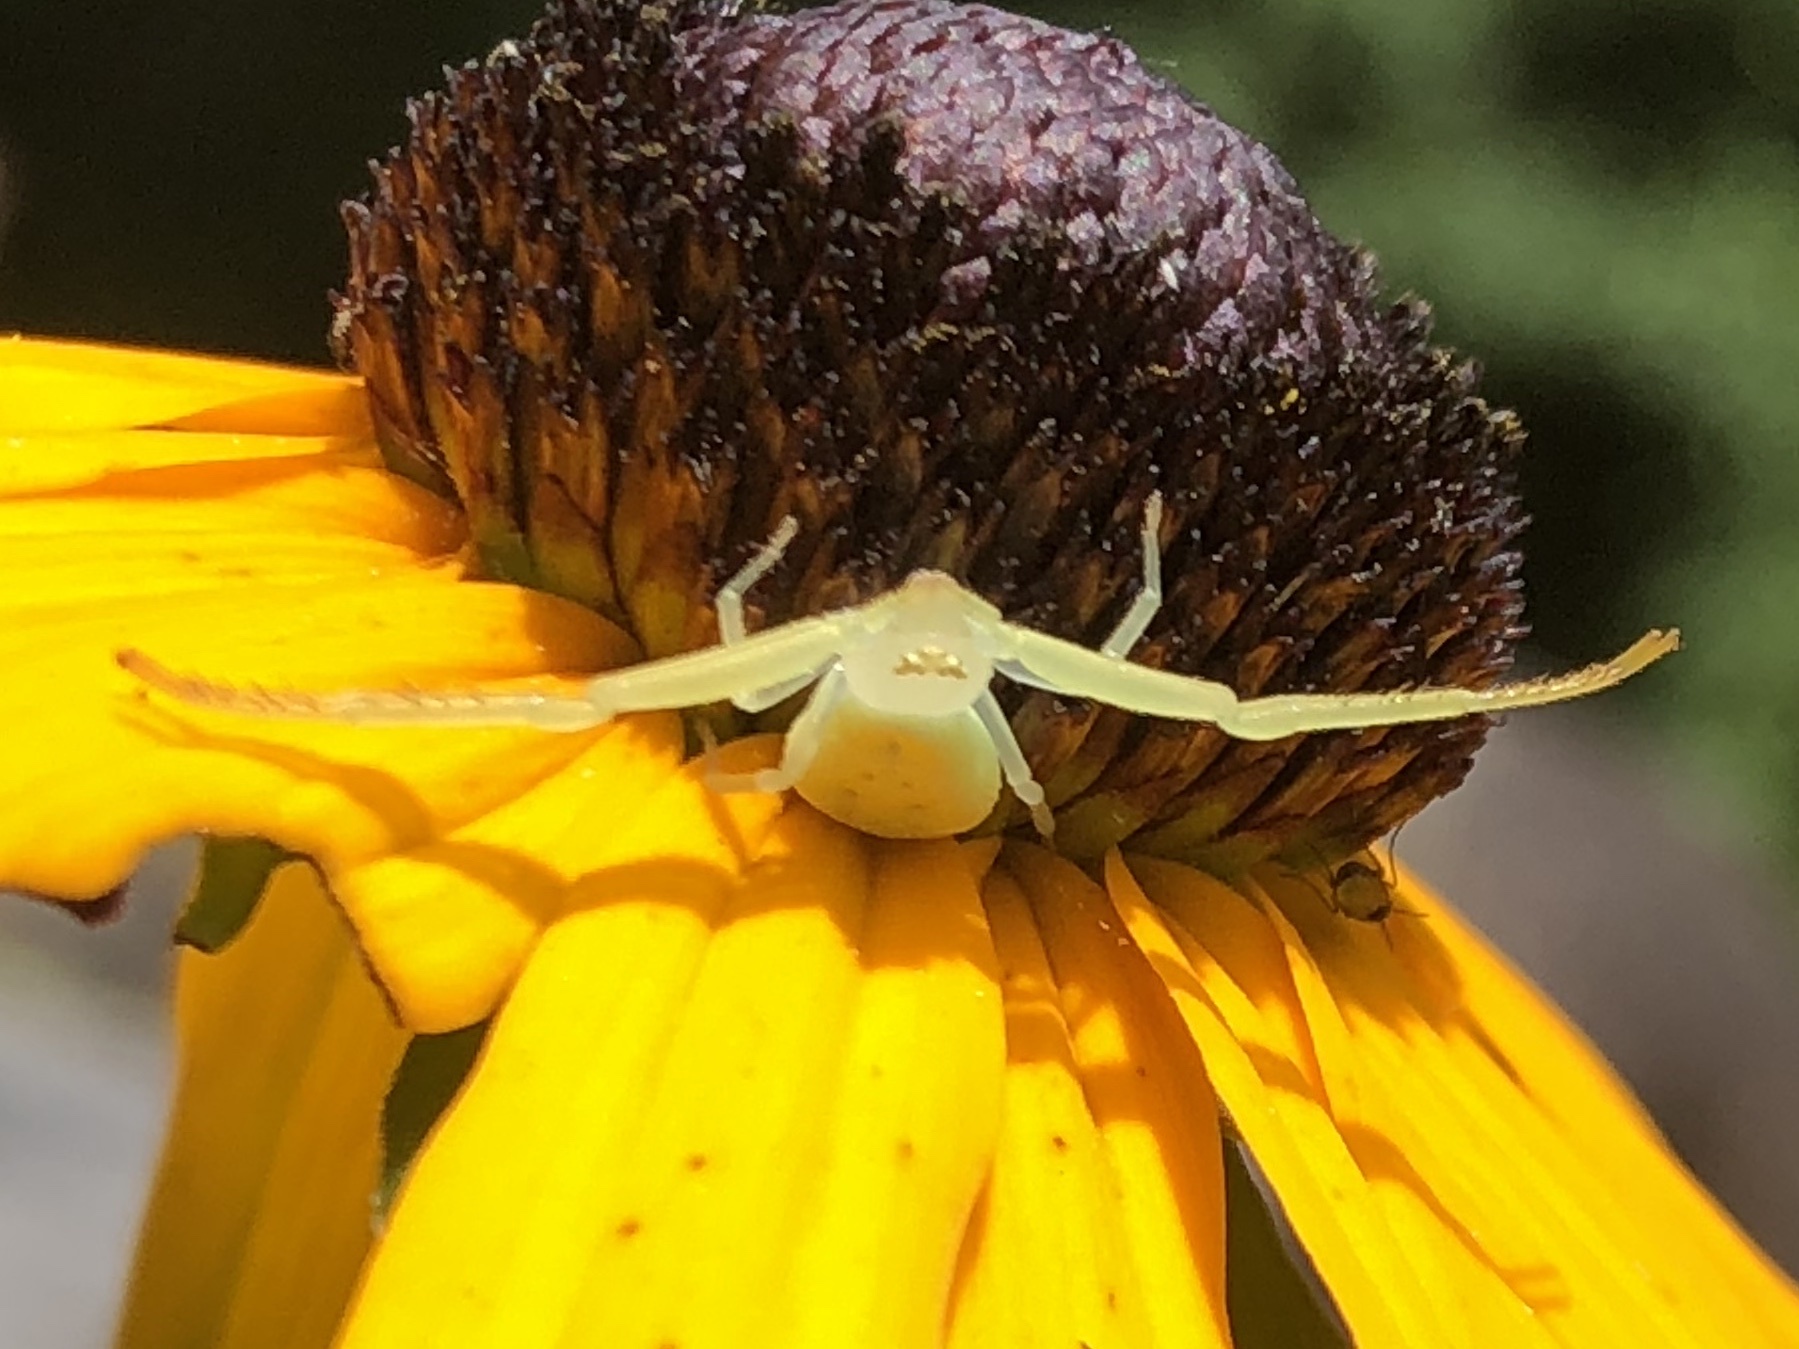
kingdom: Animalia
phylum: Arthropoda
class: Arachnida
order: Araneae
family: Thomisidae
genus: Misumessus
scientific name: Misumessus oblongus
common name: American green crab spider
